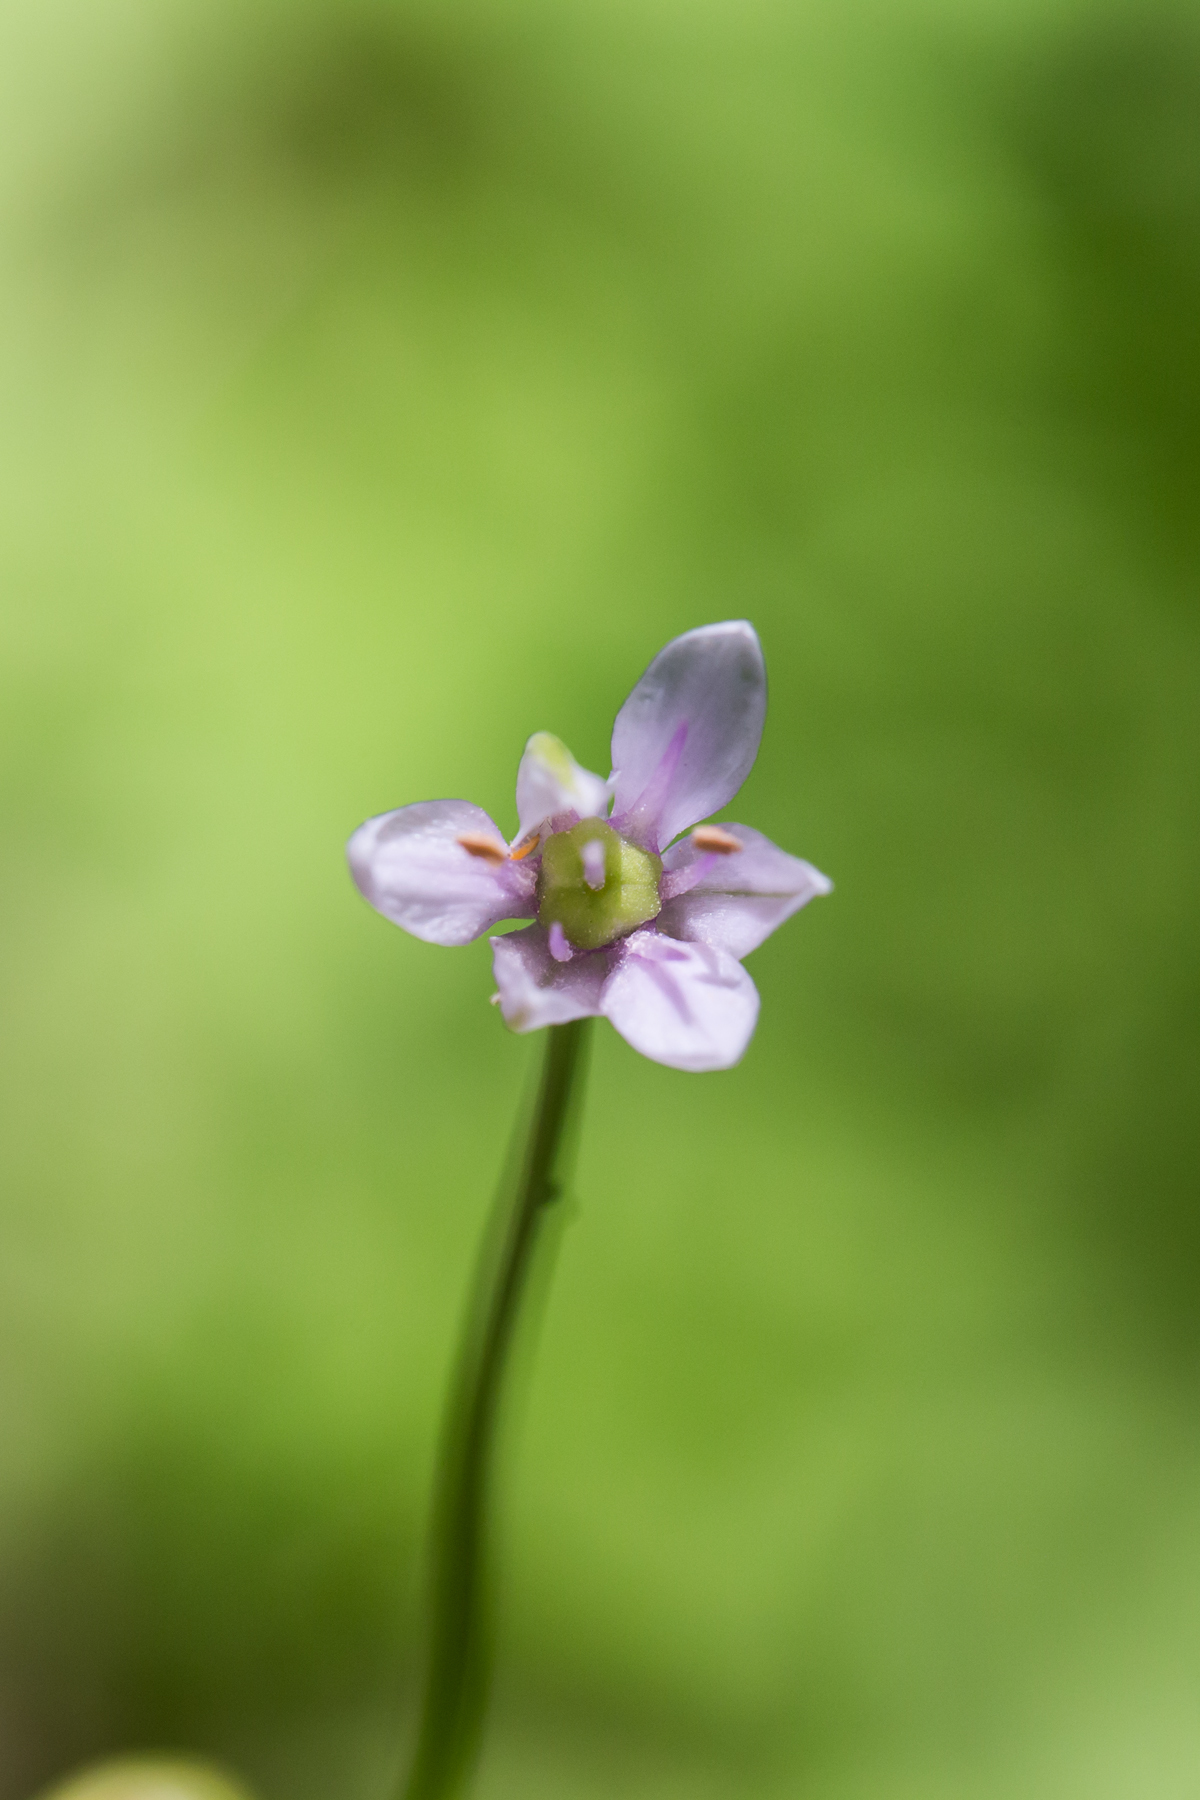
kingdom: Plantae
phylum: Tracheophyta
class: Liliopsida
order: Asparagales
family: Amaryllidaceae
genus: Allium
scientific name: Allium canadense
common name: Meadow garlic
